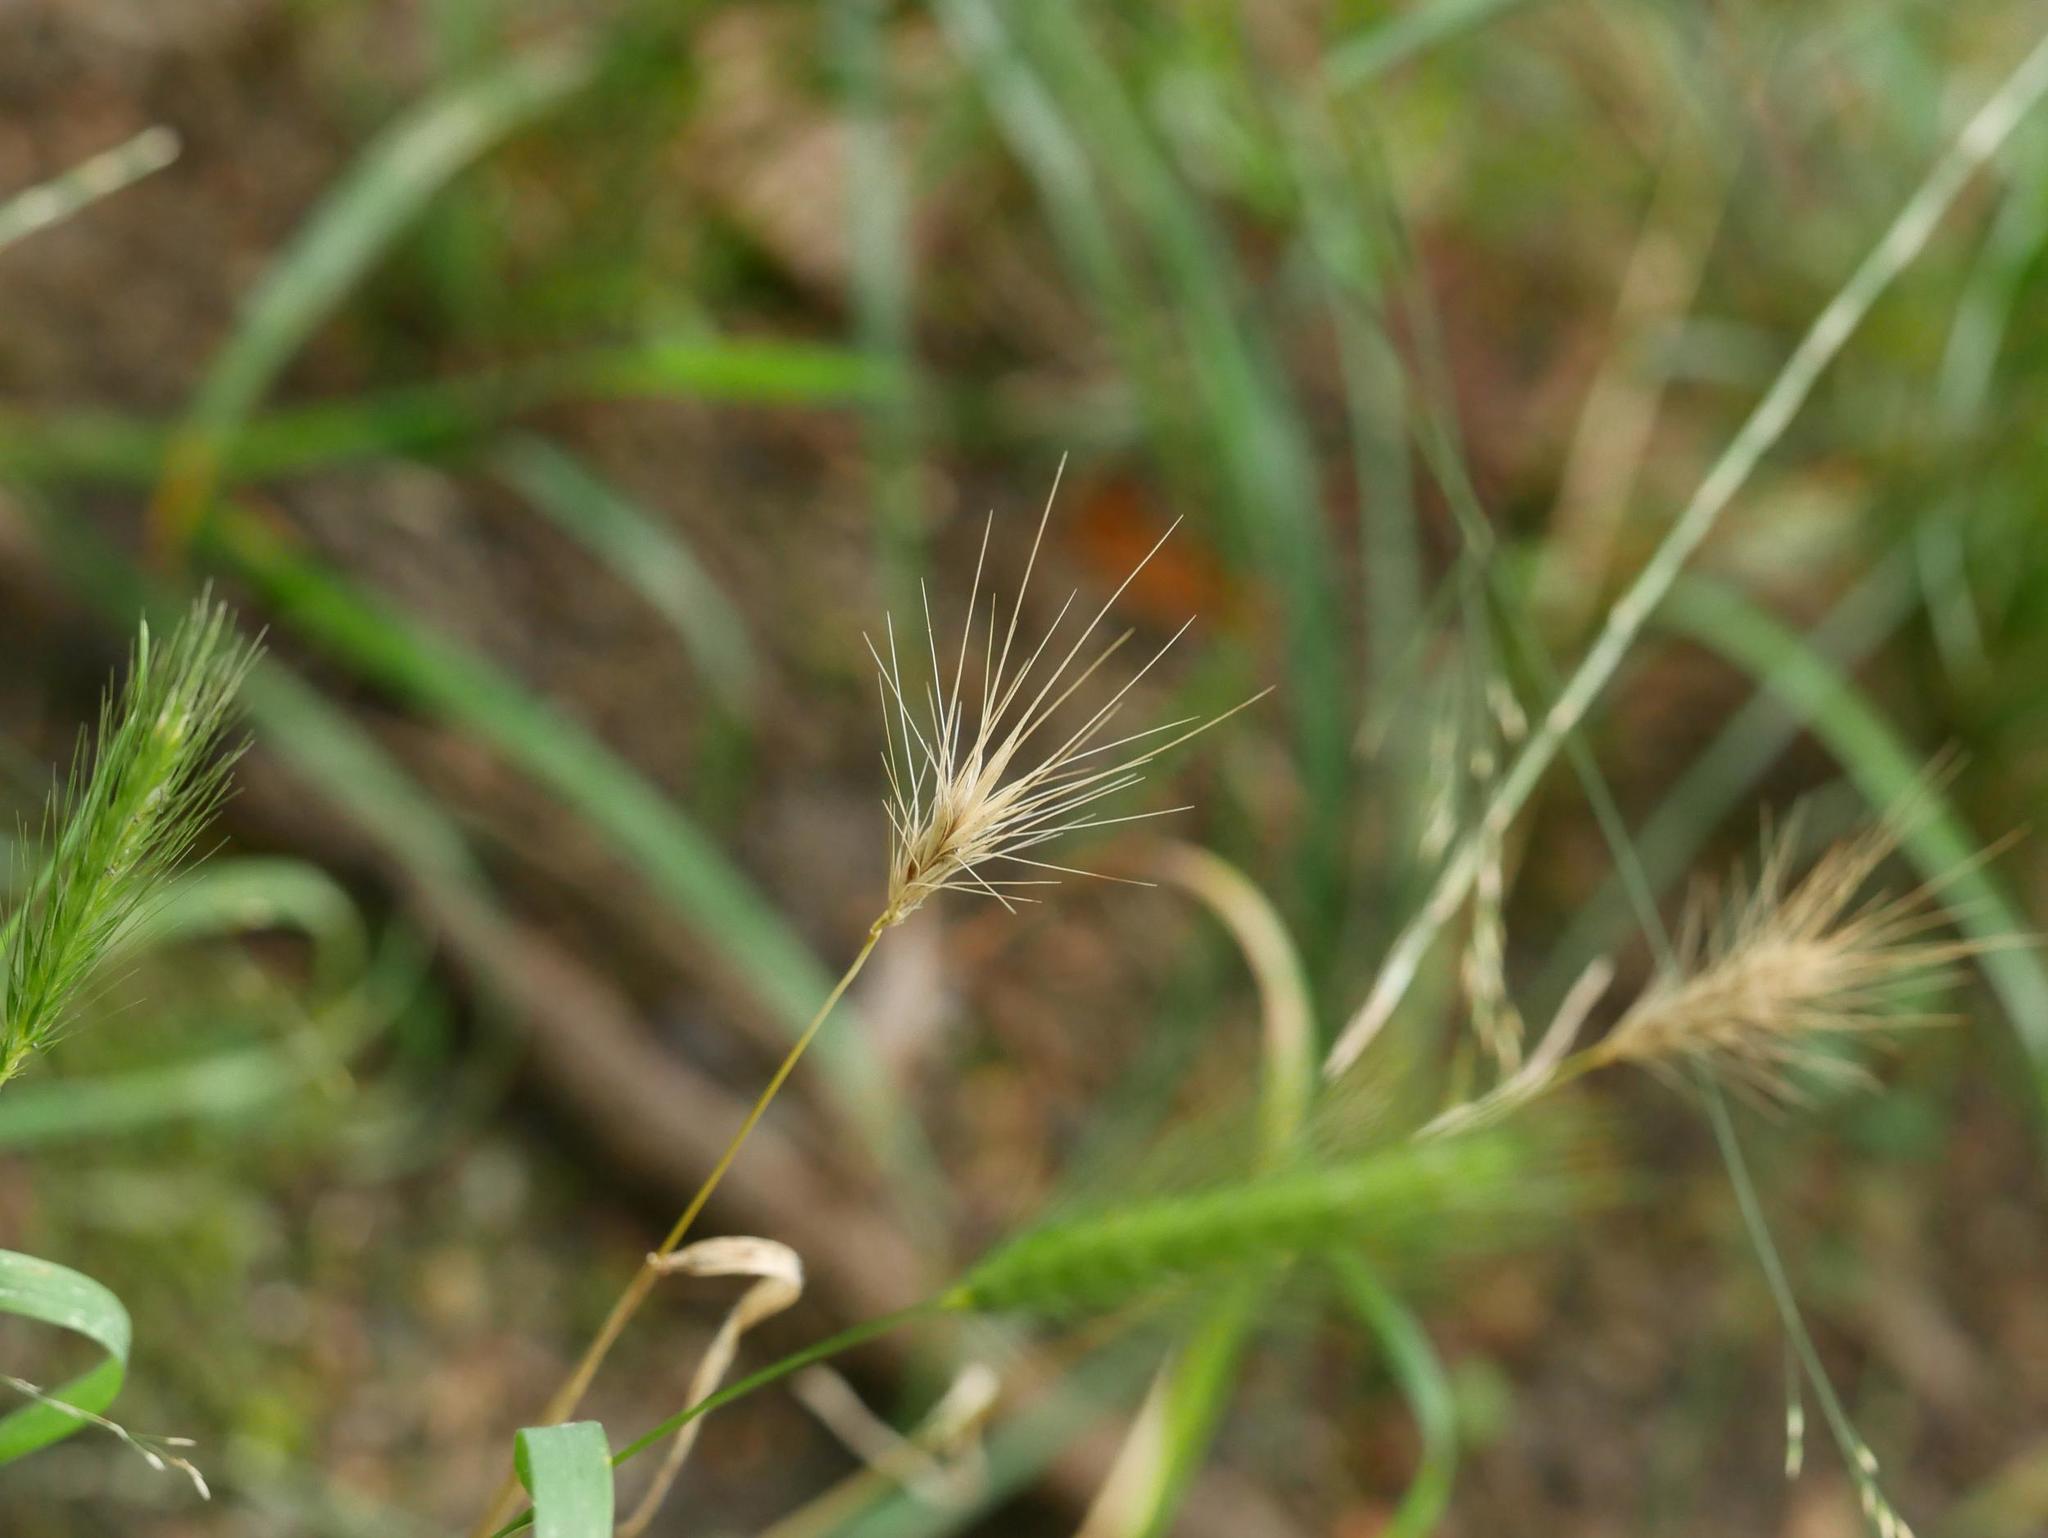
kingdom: Plantae
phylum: Tracheophyta
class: Liliopsida
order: Poales
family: Poaceae
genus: Hordeum
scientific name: Hordeum murinum
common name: Wall barley
